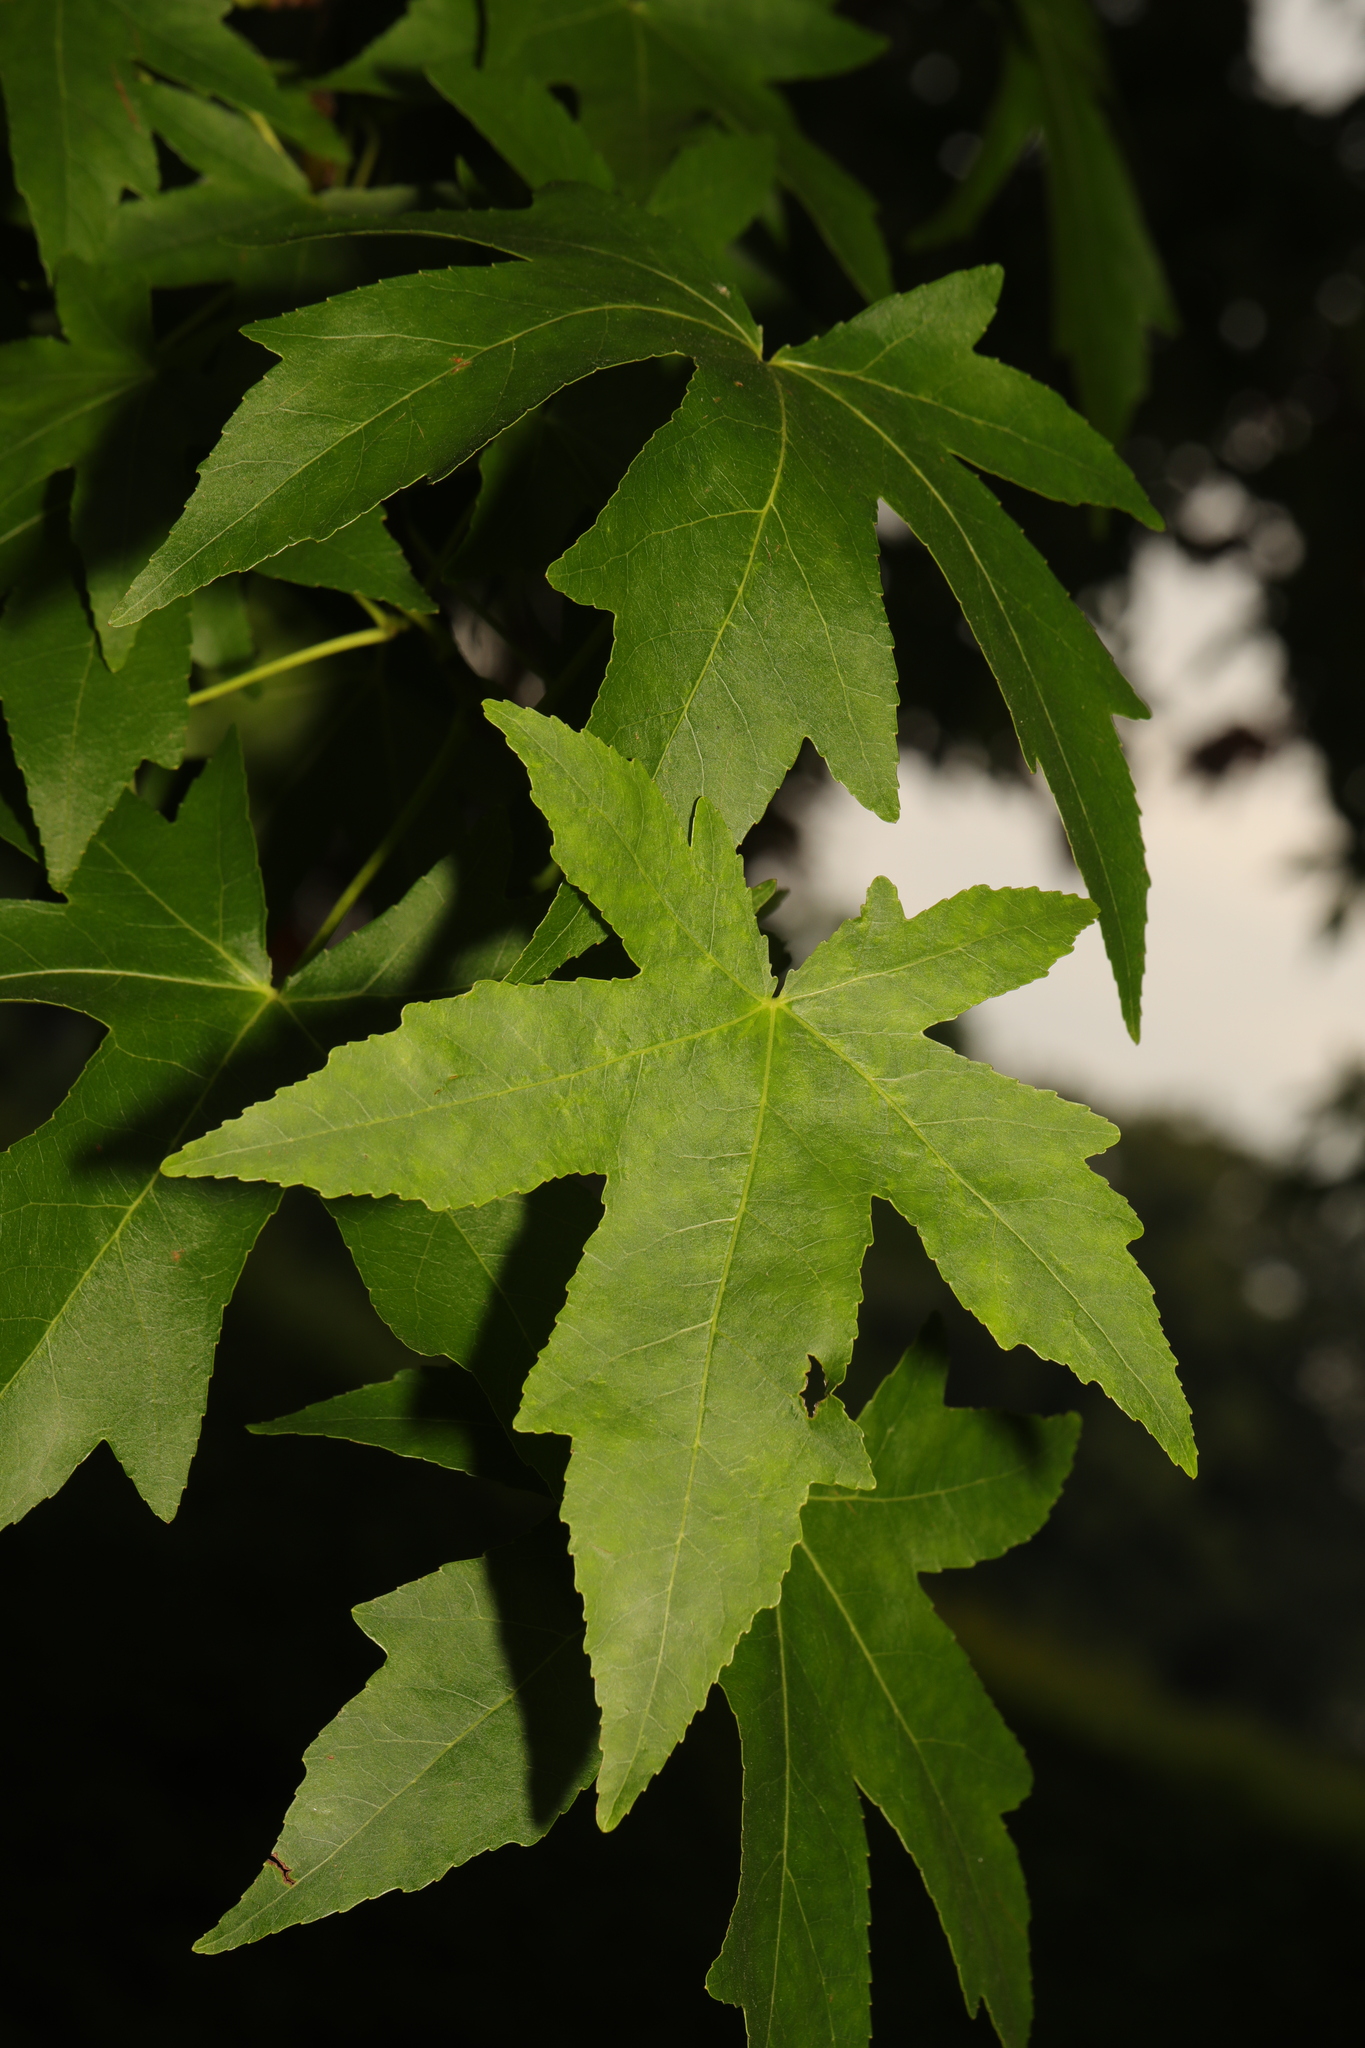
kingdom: Plantae
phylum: Tracheophyta
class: Magnoliopsida
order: Saxifragales
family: Altingiaceae
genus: Liquidambar
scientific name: Liquidambar styraciflua
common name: Sweet gum
